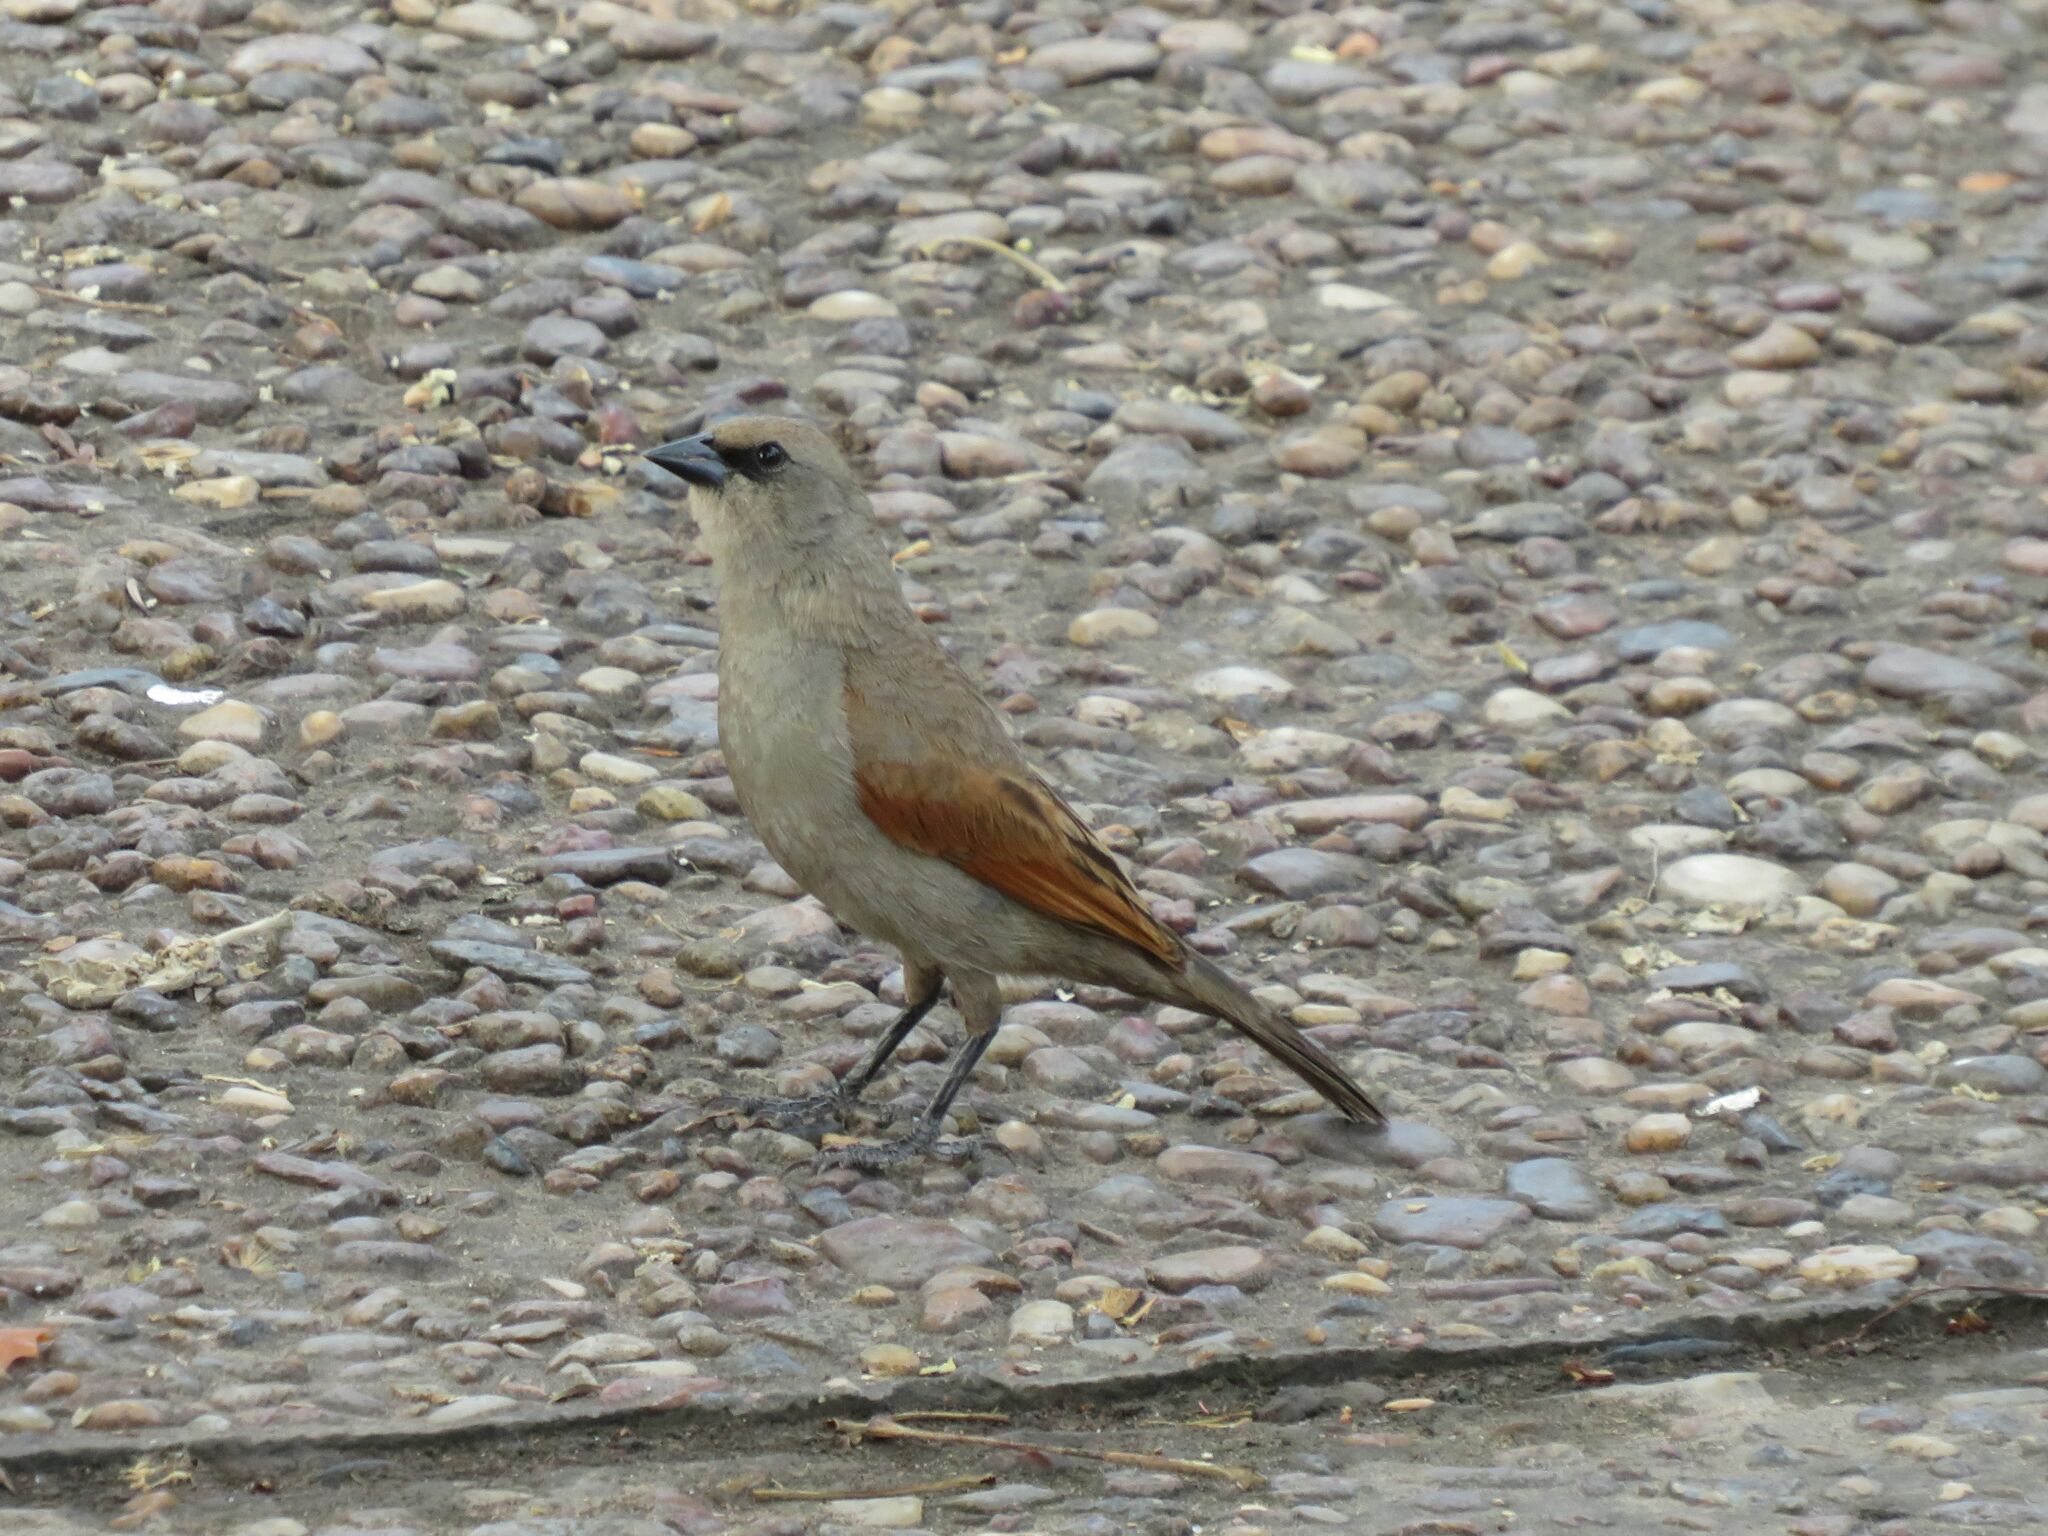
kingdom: Animalia
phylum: Chordata
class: Aves
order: Passeriformes
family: Icteridae
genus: Agelaioides
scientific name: Agelaioides badius
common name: Baywing
